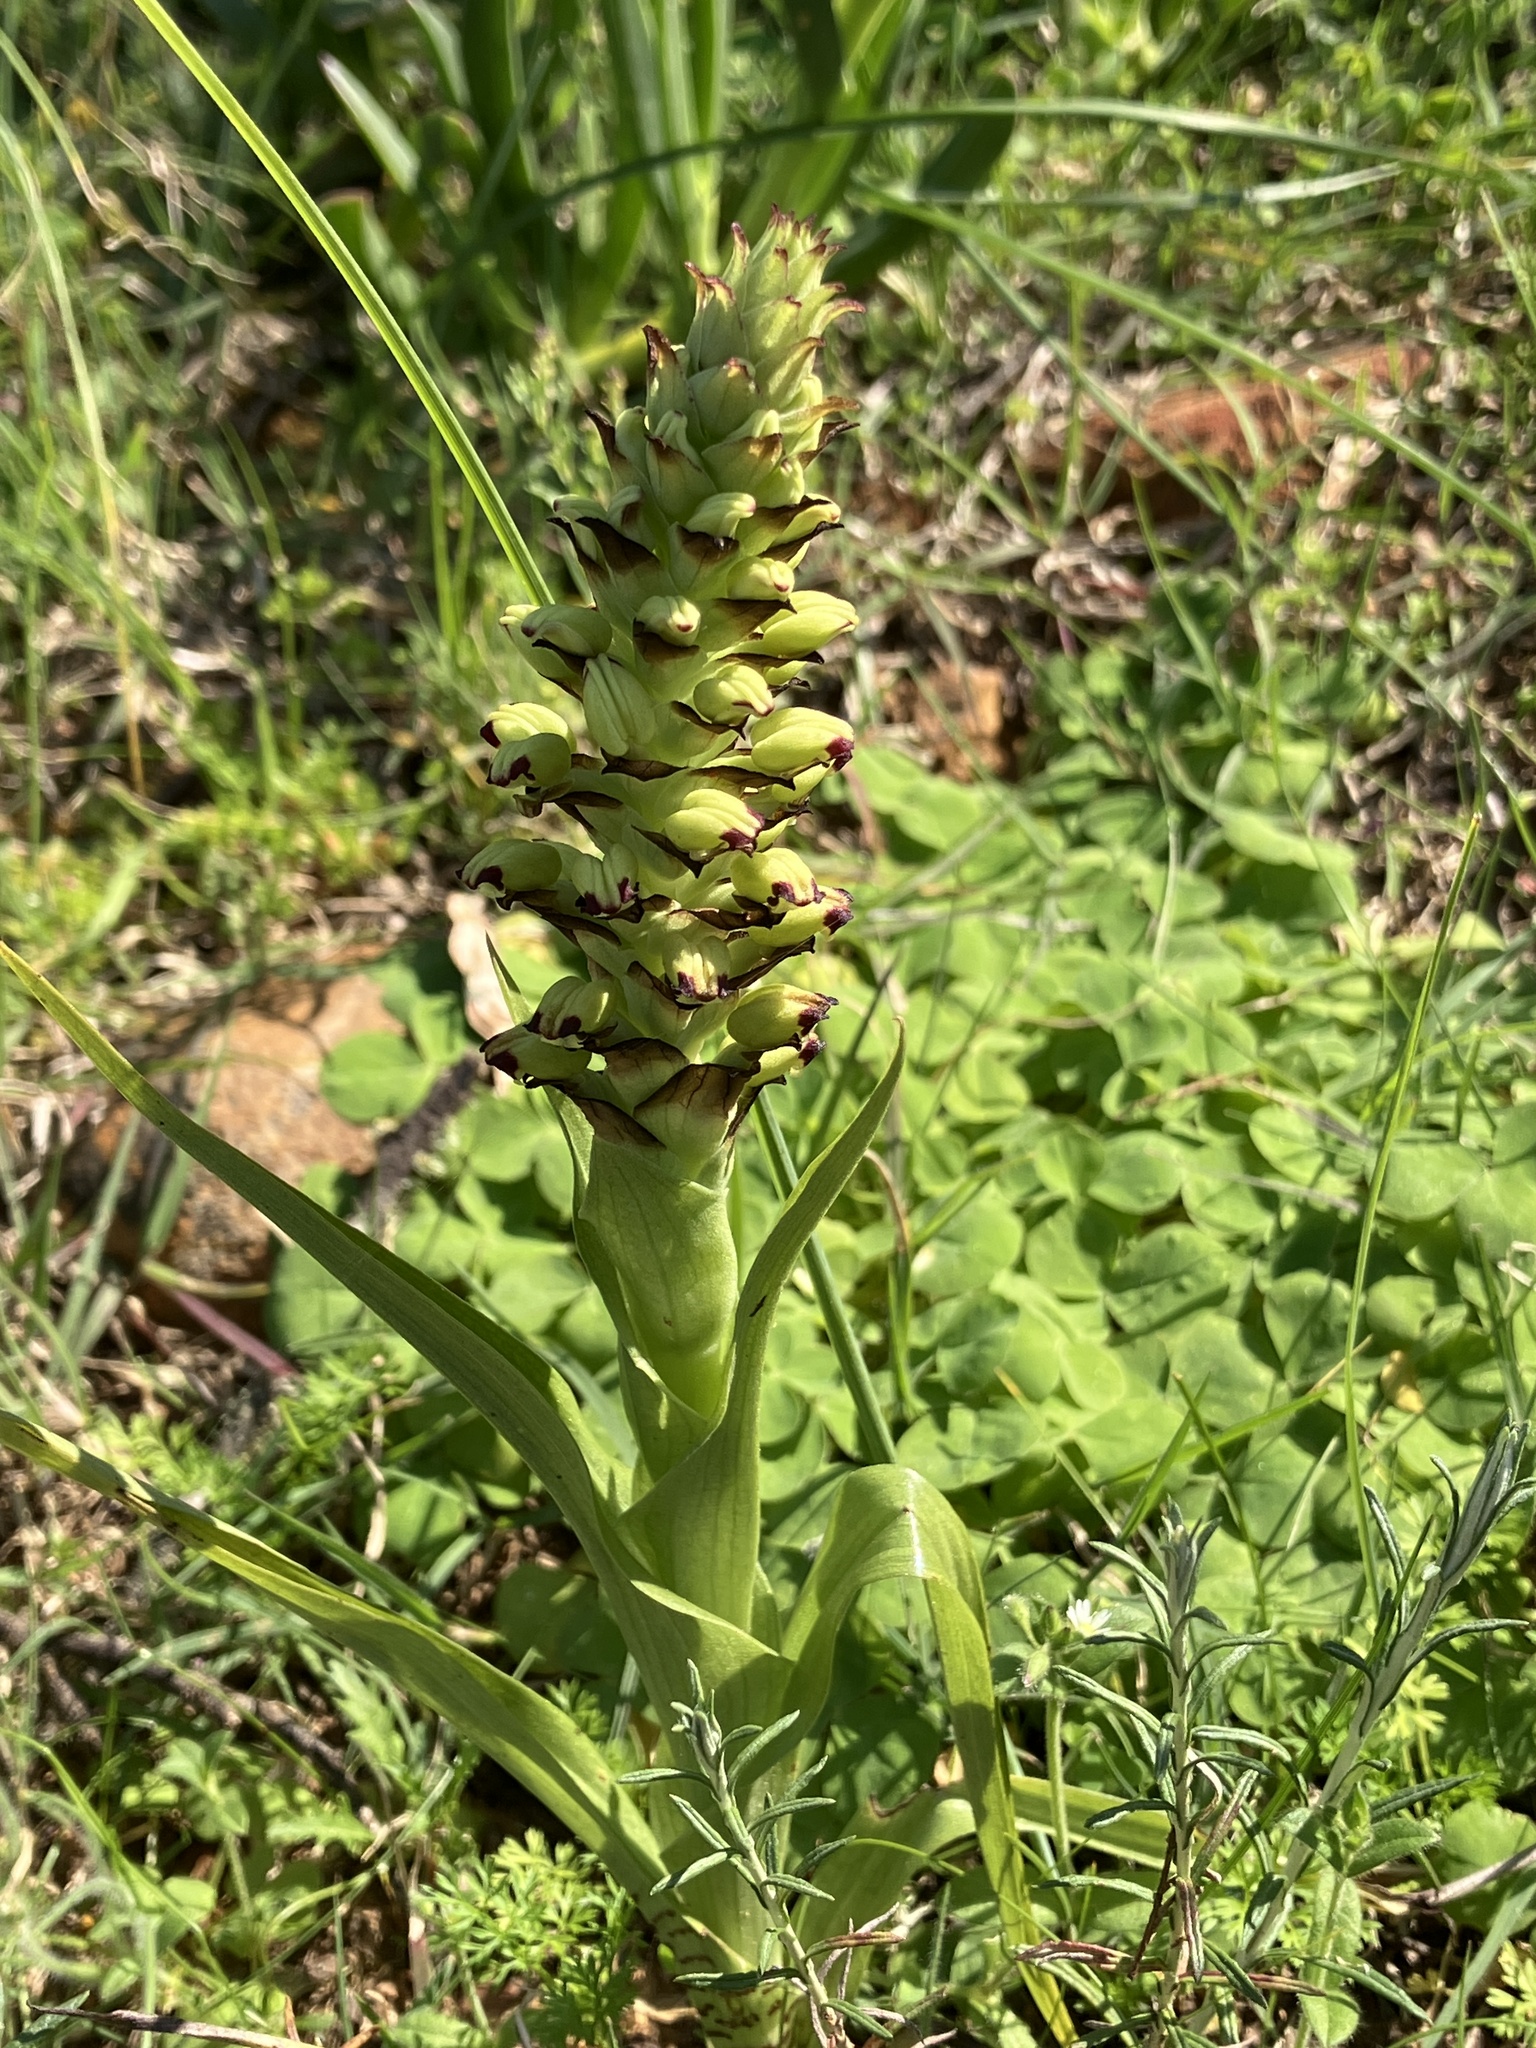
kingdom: Plantae
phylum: Tracheophyta
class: Liliopsida
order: Asparagales
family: Orchidaceae
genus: Corycium
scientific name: Corycium orobanchoides
